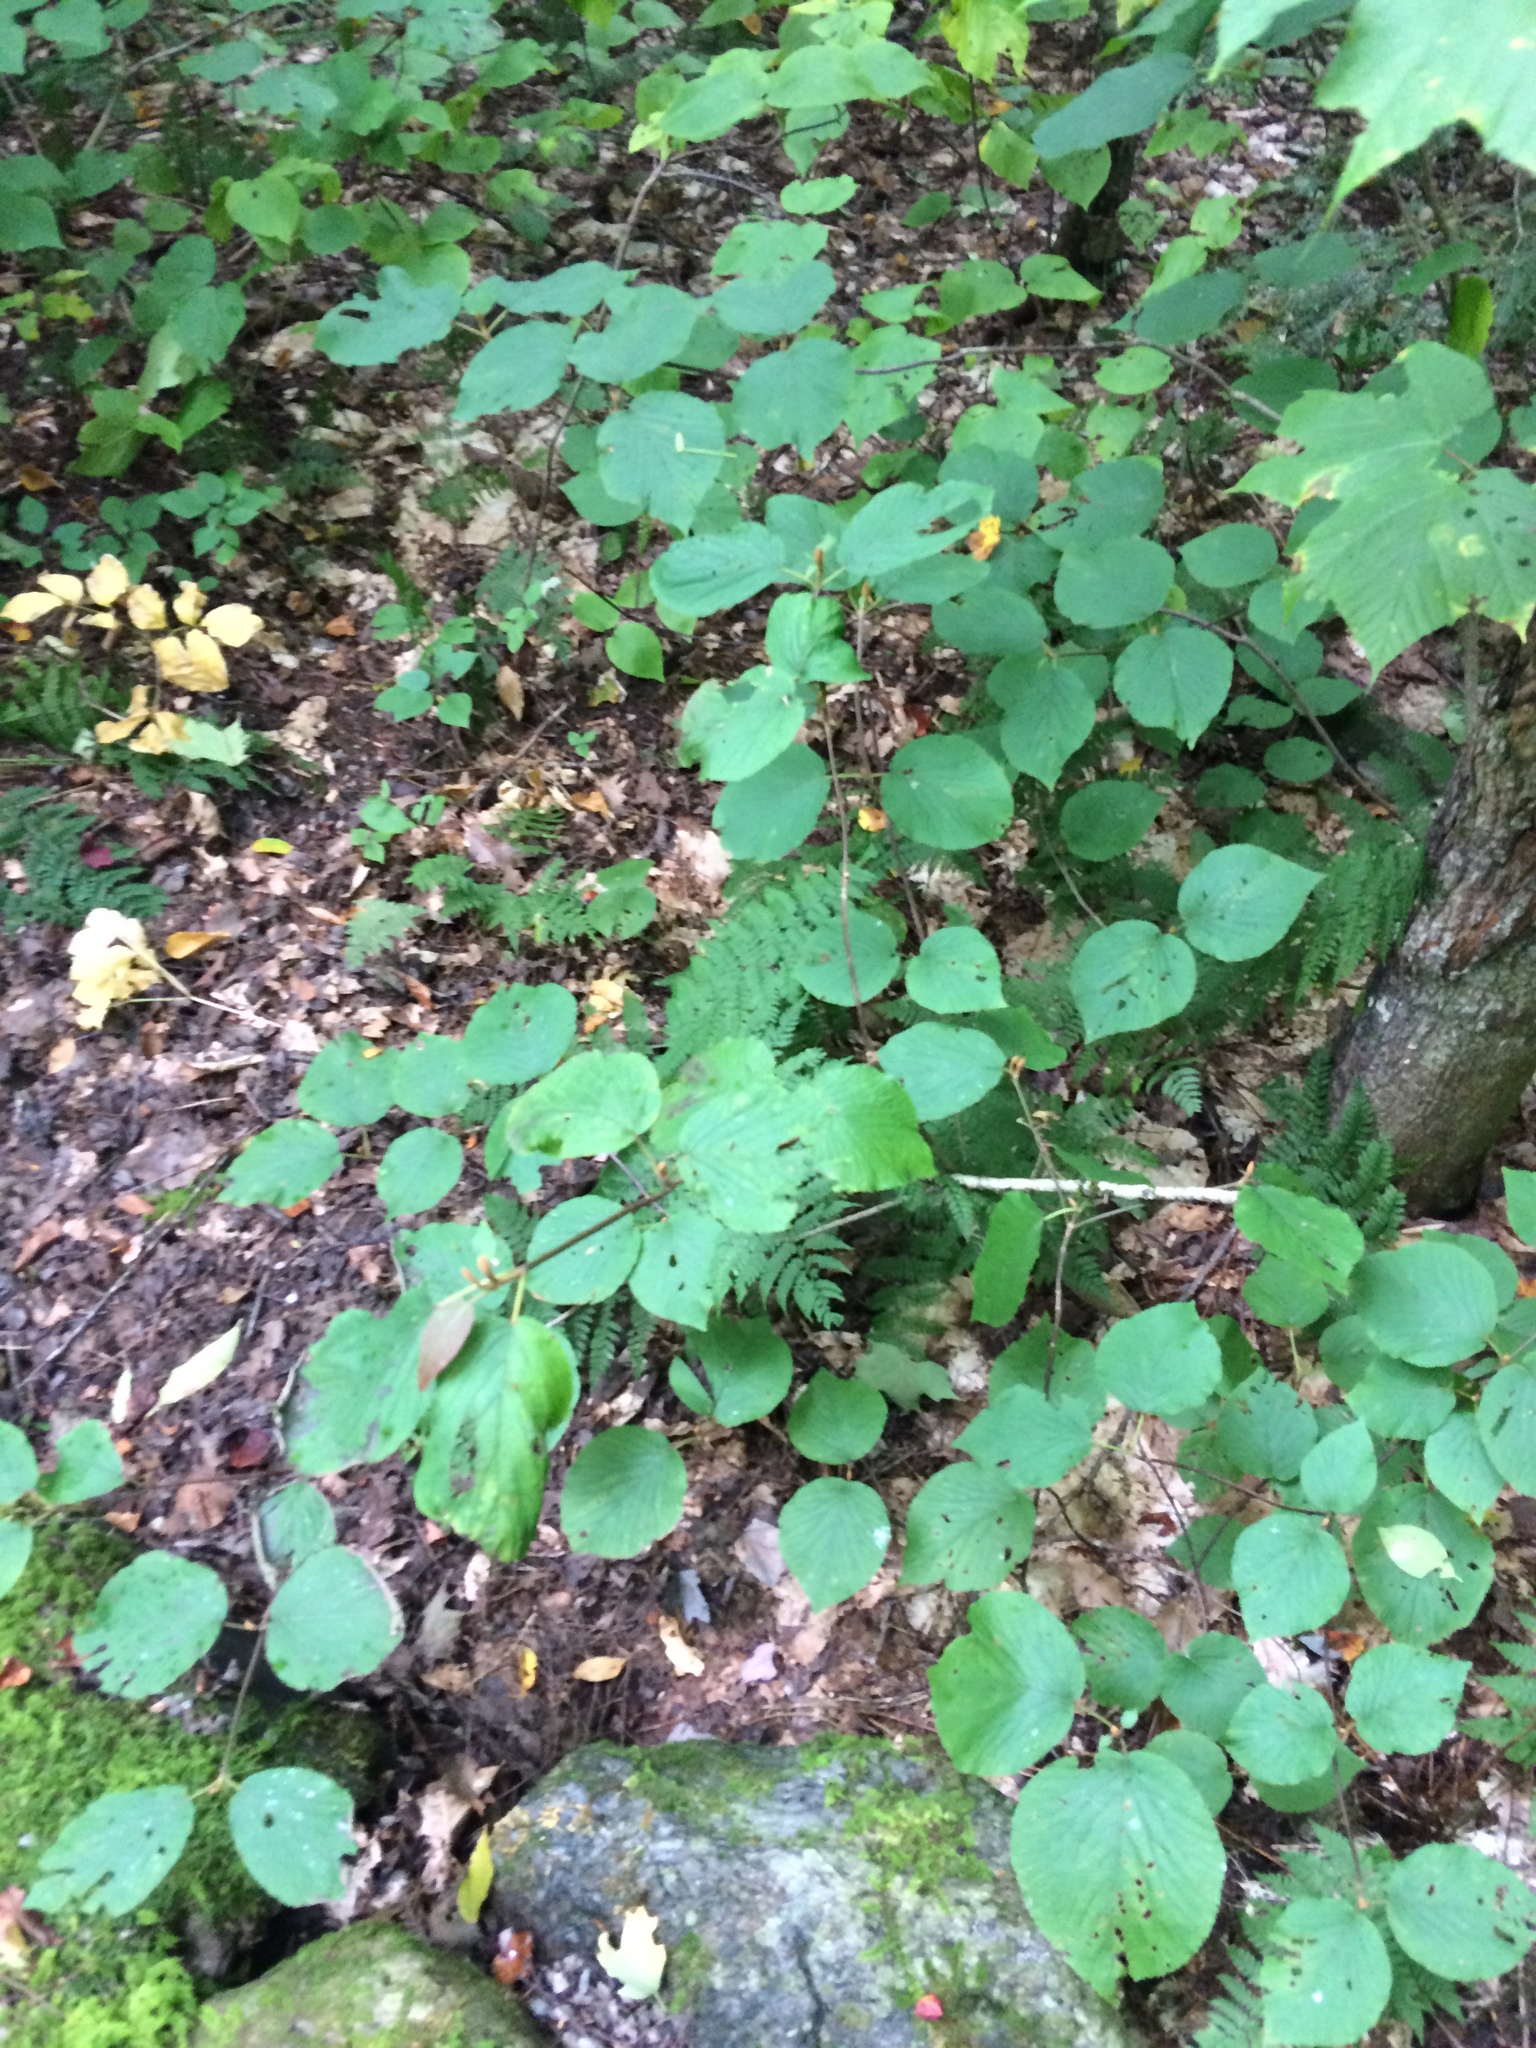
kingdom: Plantae
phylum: Tracheophyta
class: Magnoliopsida
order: Dipsacales
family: Viburnaceae
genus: Viburnum
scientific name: Viburnum lantanoides
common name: Hobblebush
